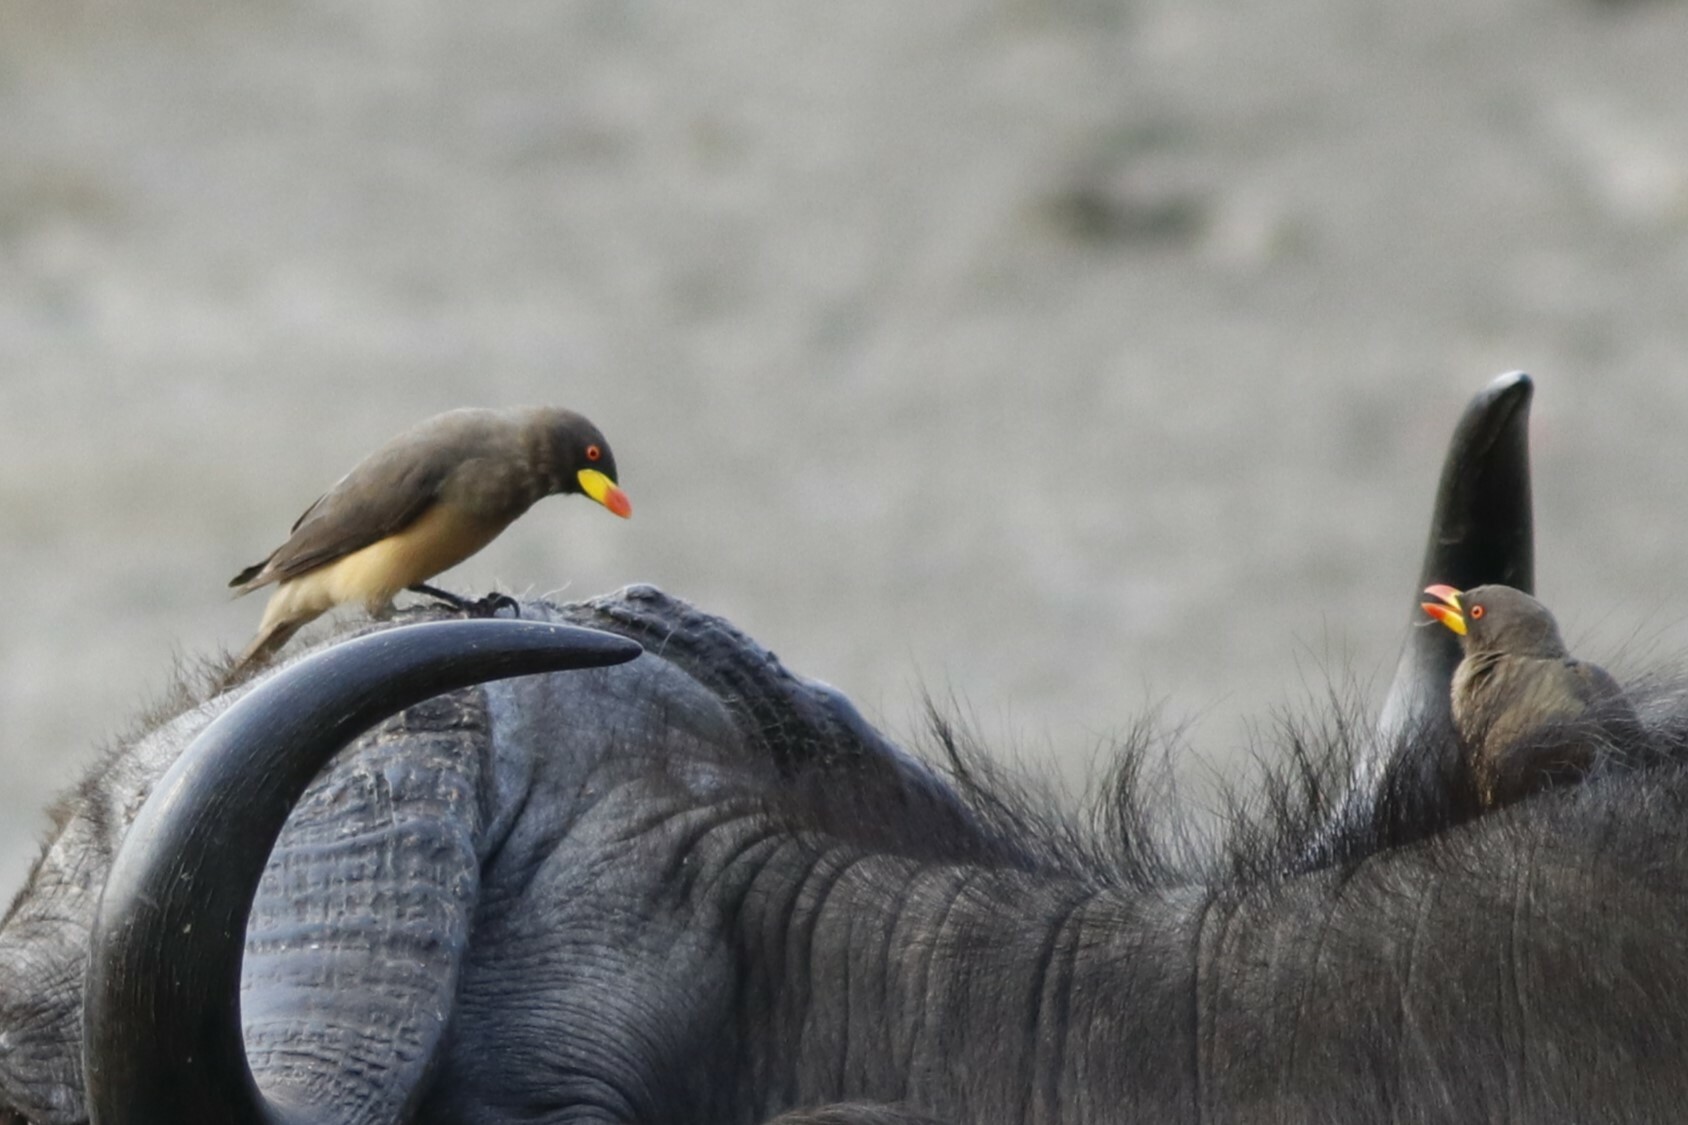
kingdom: Animalia
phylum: Chordata
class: Aves
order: Passeriformes
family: Buphagidae
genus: Buphagus
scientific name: Buphagus africanus
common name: Yellow-billed oxpecker
